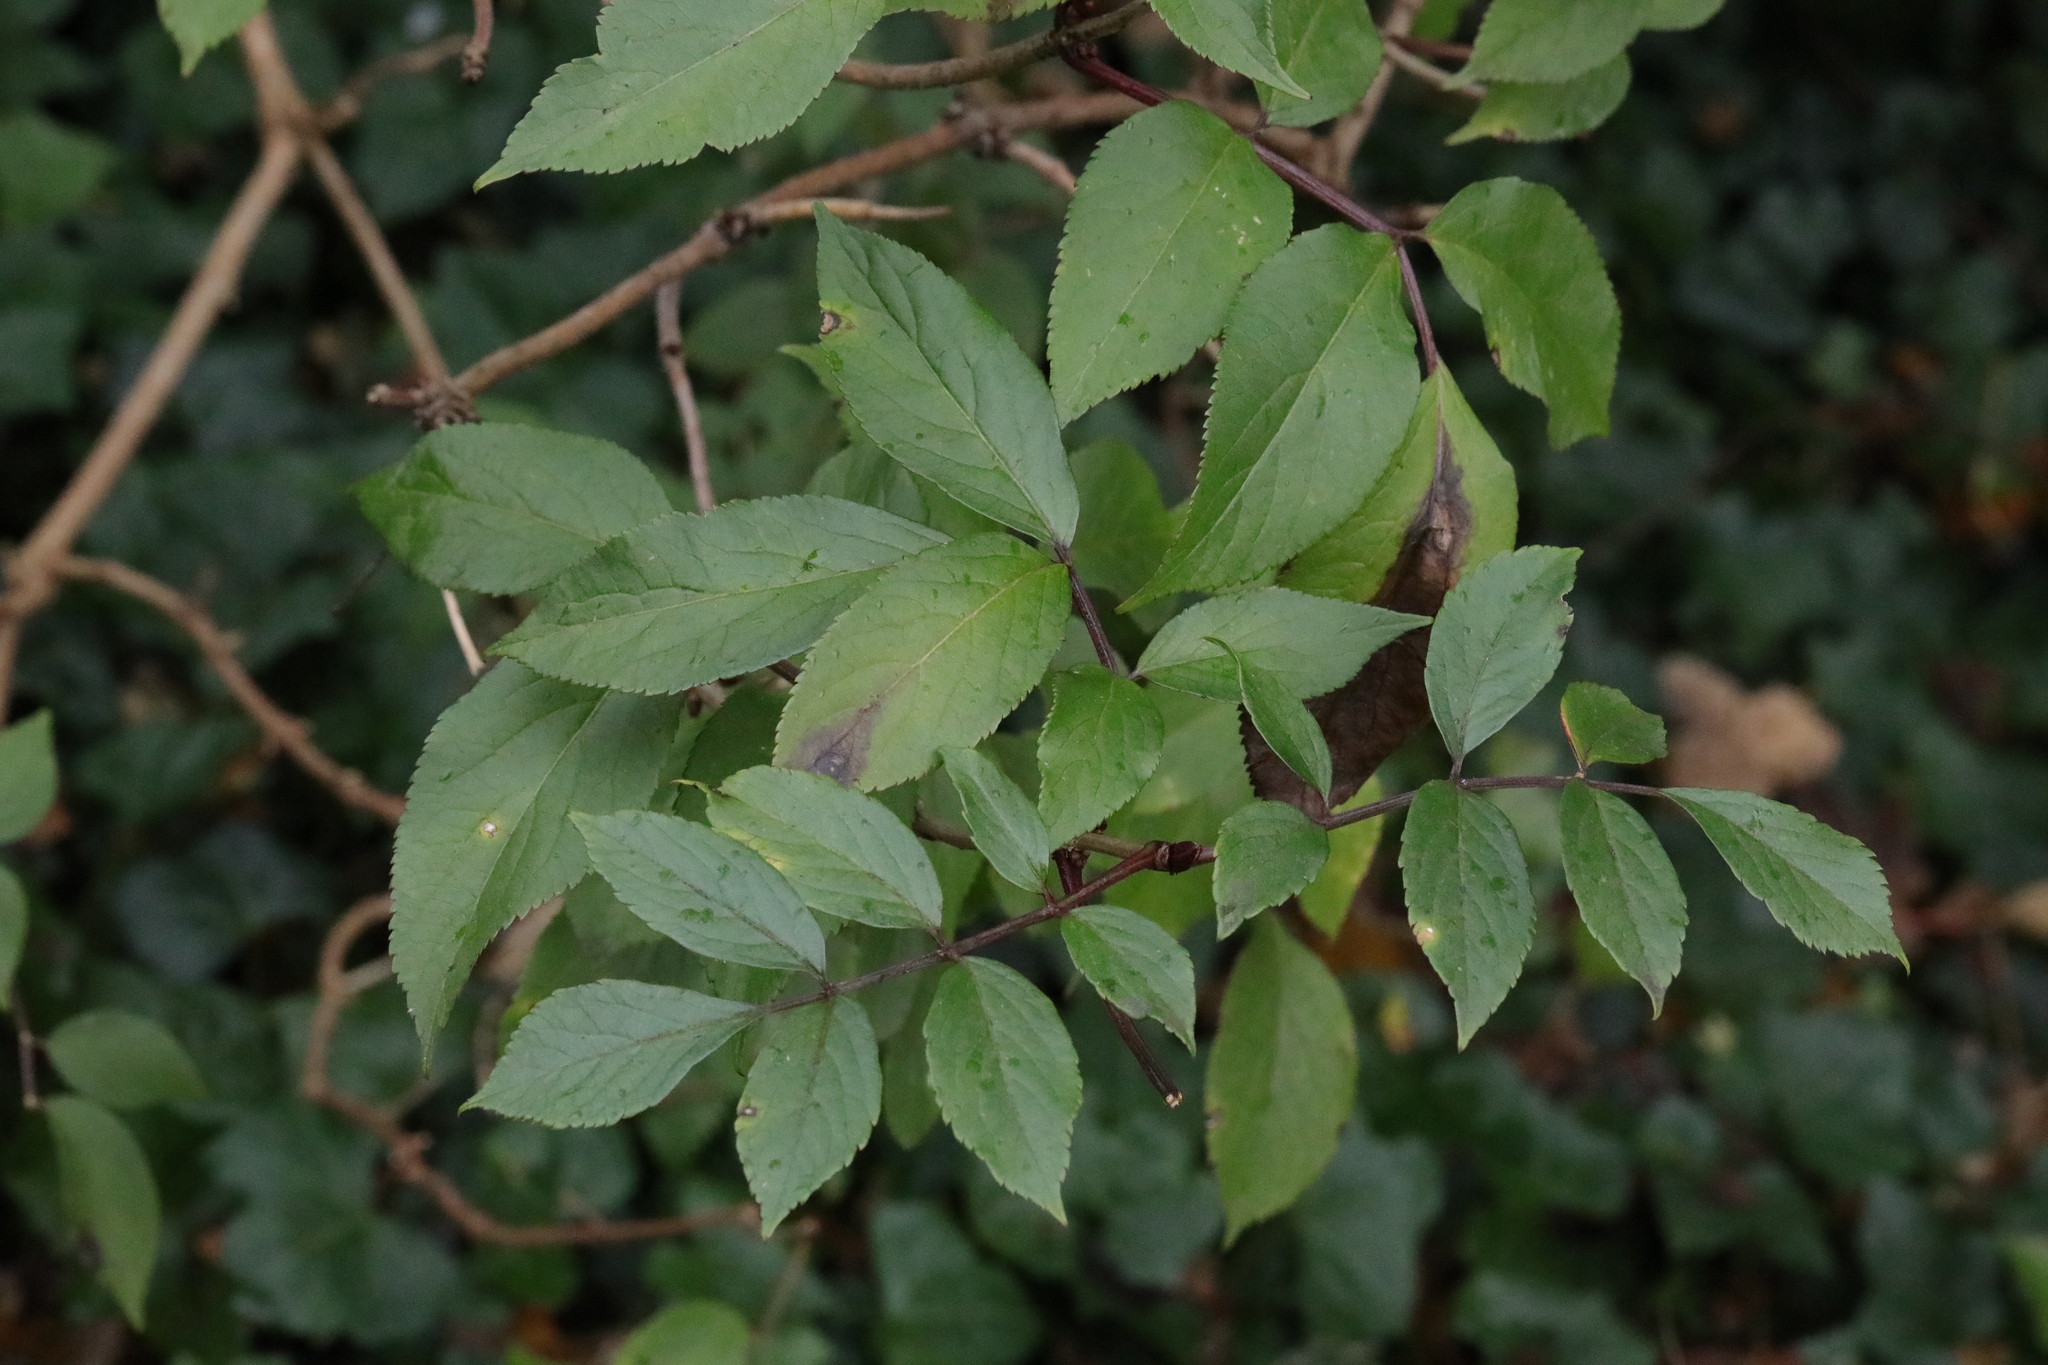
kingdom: Plantae
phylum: Tracheophyta
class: Magnoliopsida
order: Dipsacales
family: Viburnaceae
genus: Sambucus
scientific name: Sambucus nigra
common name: Elder
